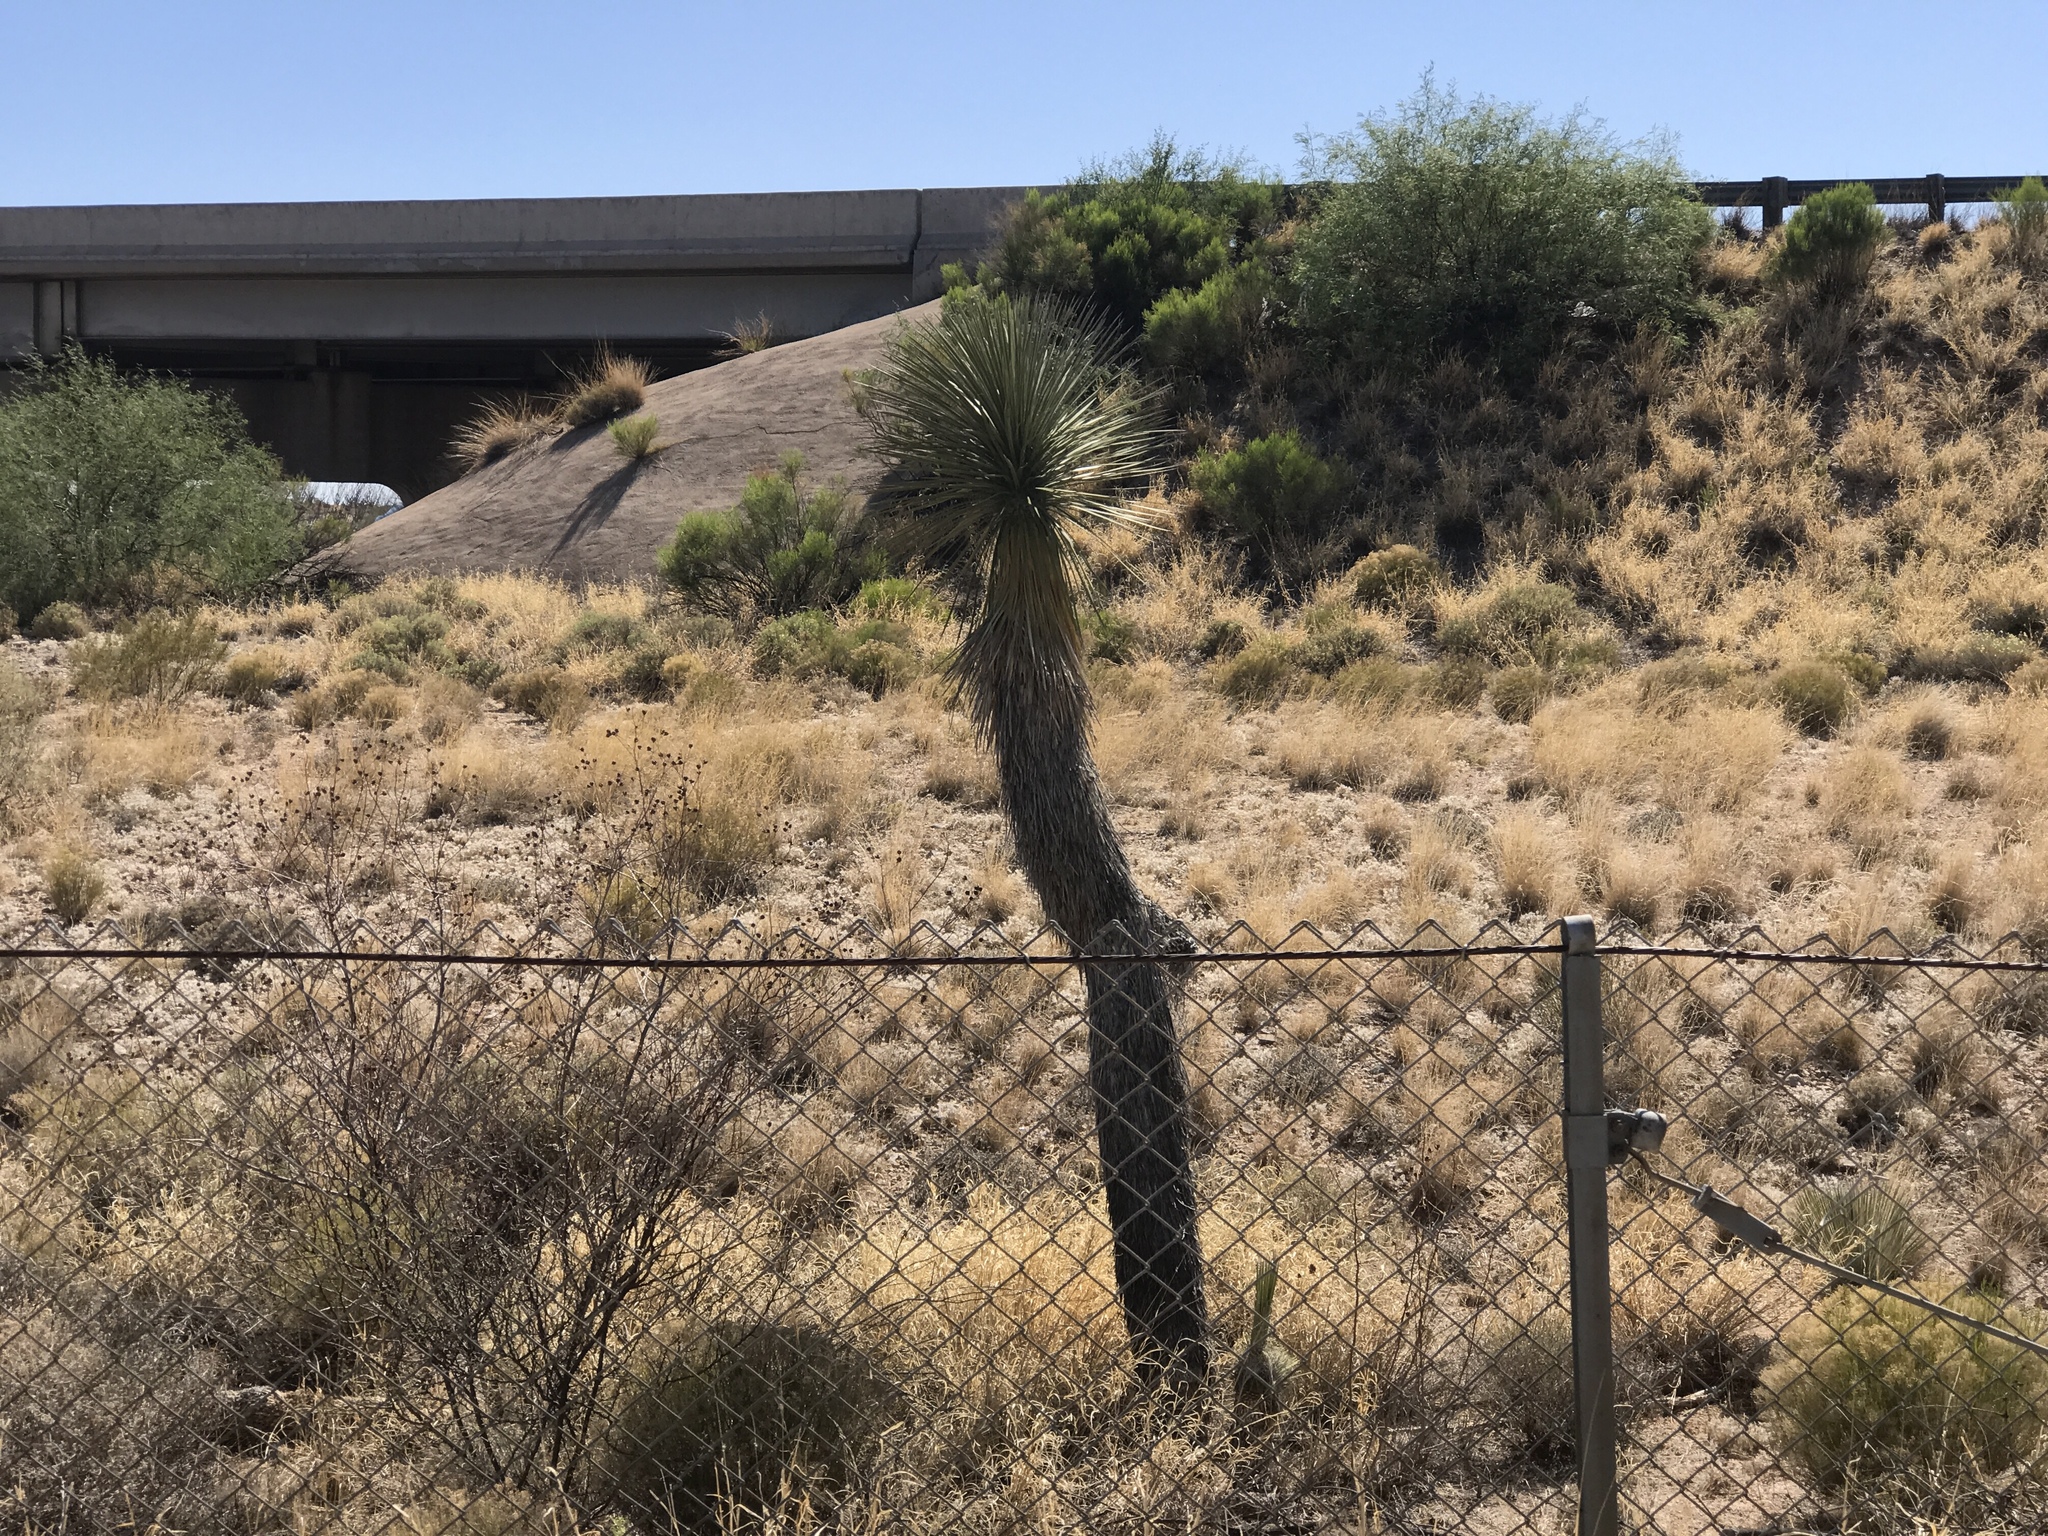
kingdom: Plantae
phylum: Tracheophyta
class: Liliopsida
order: Asparagales
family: Asparagaceae
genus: Yucca
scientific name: Yucca elata
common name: Palmella
